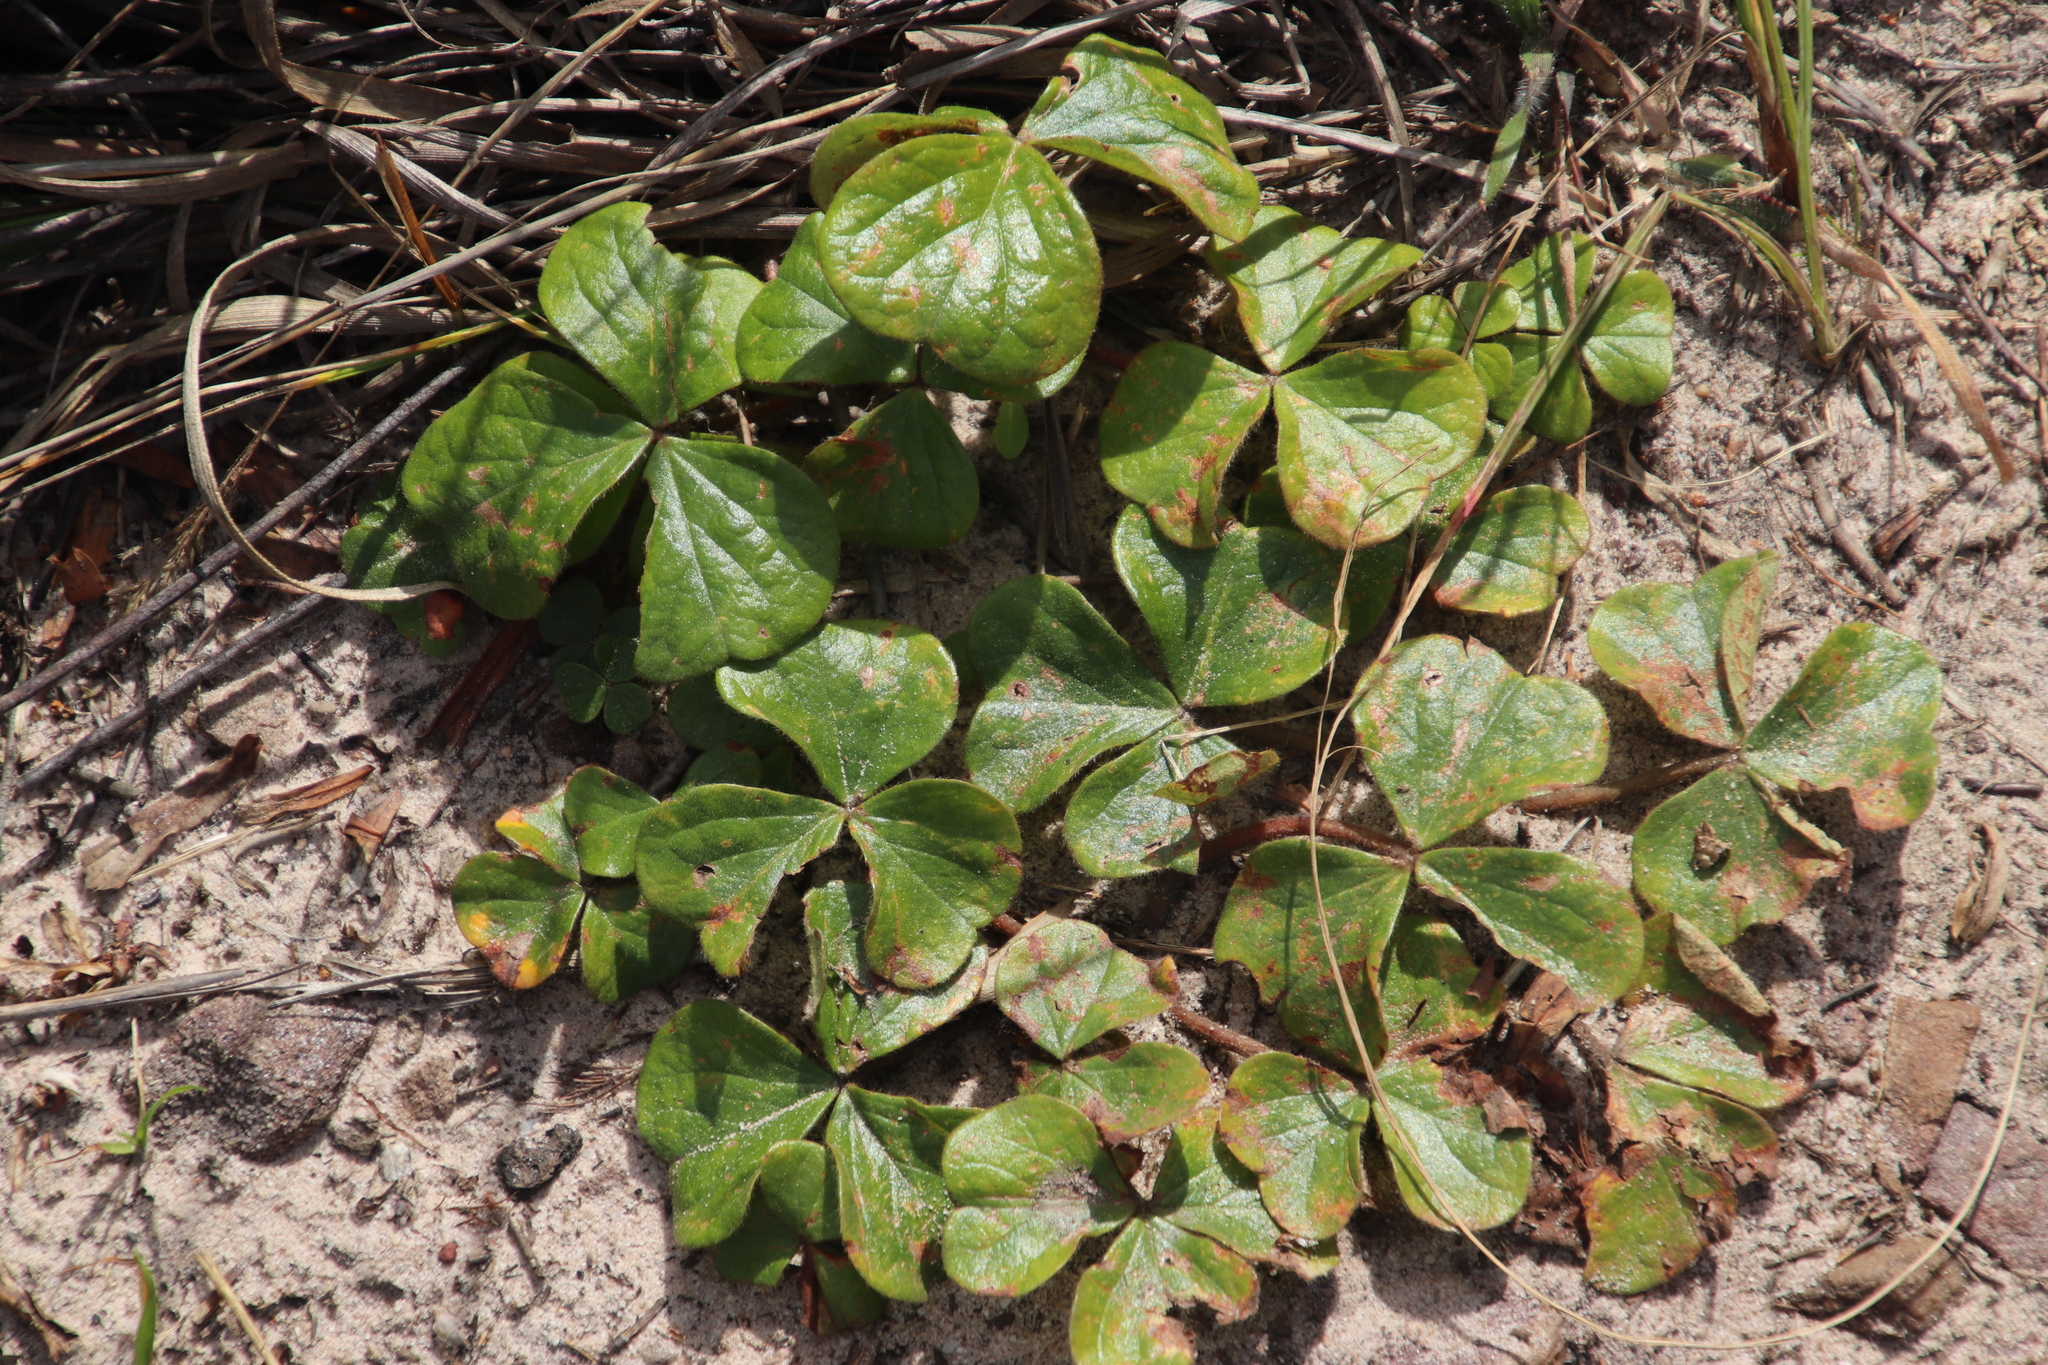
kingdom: Plantae
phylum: Tracheophyta
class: Magnoliopsida
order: Oxalidales
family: Oxalidaceae
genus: Oxalis
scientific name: Oxalis truncatula
